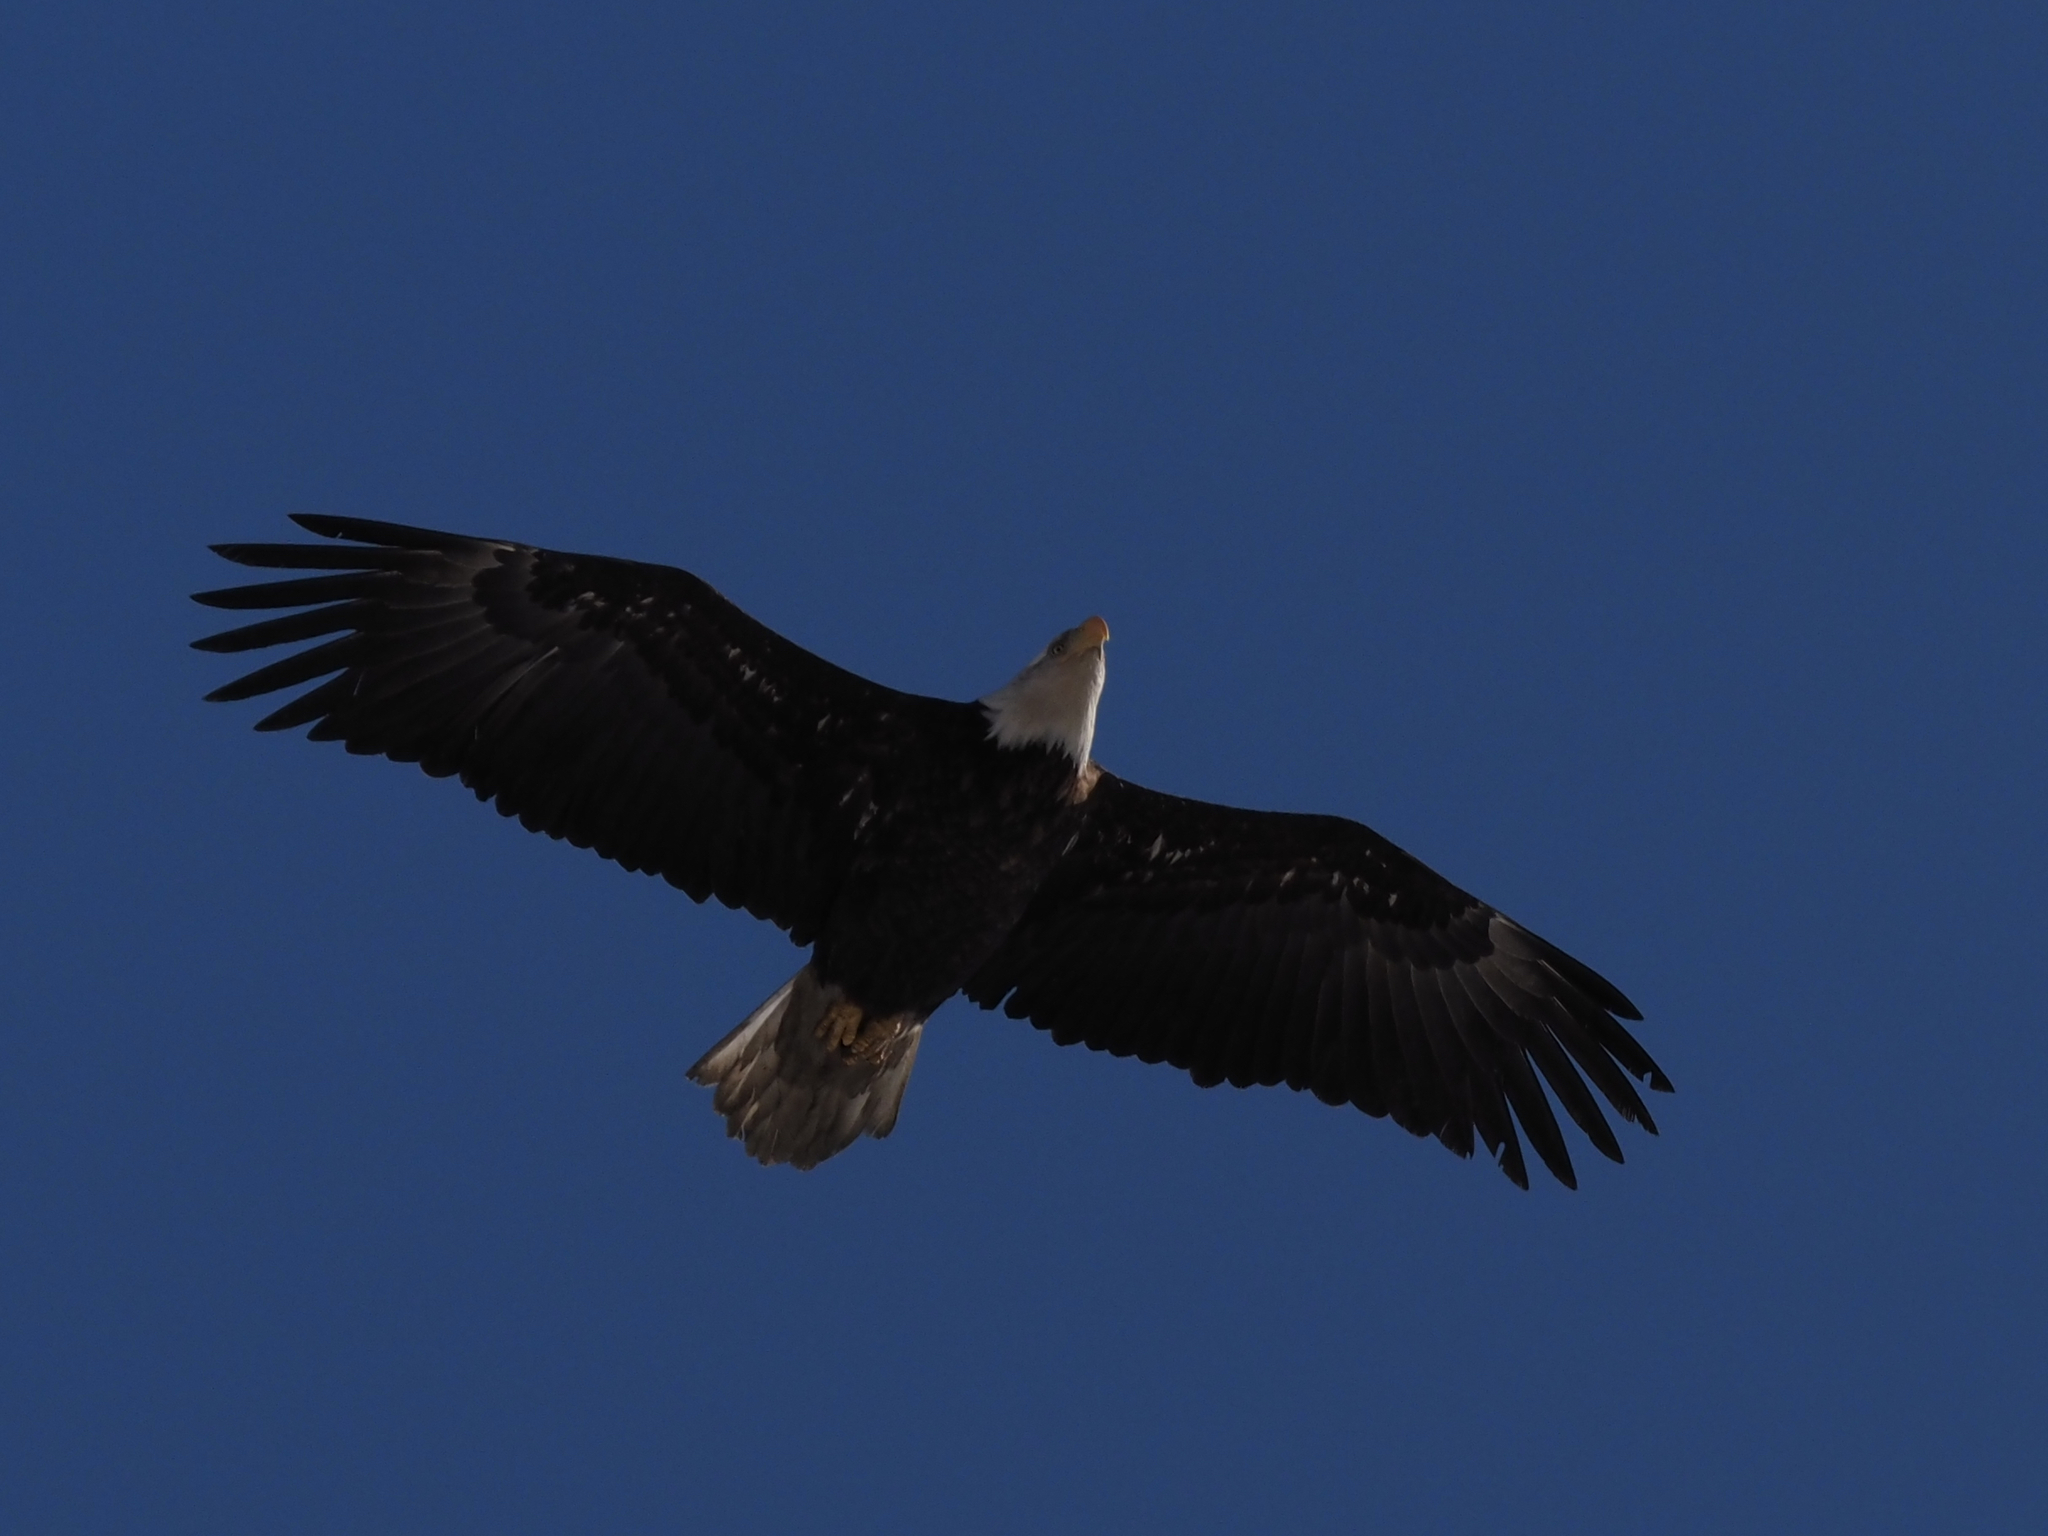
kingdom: Animalia
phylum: Chordata
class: Aves
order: Accipitriformes
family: Accipitridae
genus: Haliaeetus
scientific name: Haliaeetus leucocephalus
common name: Bald eagle
